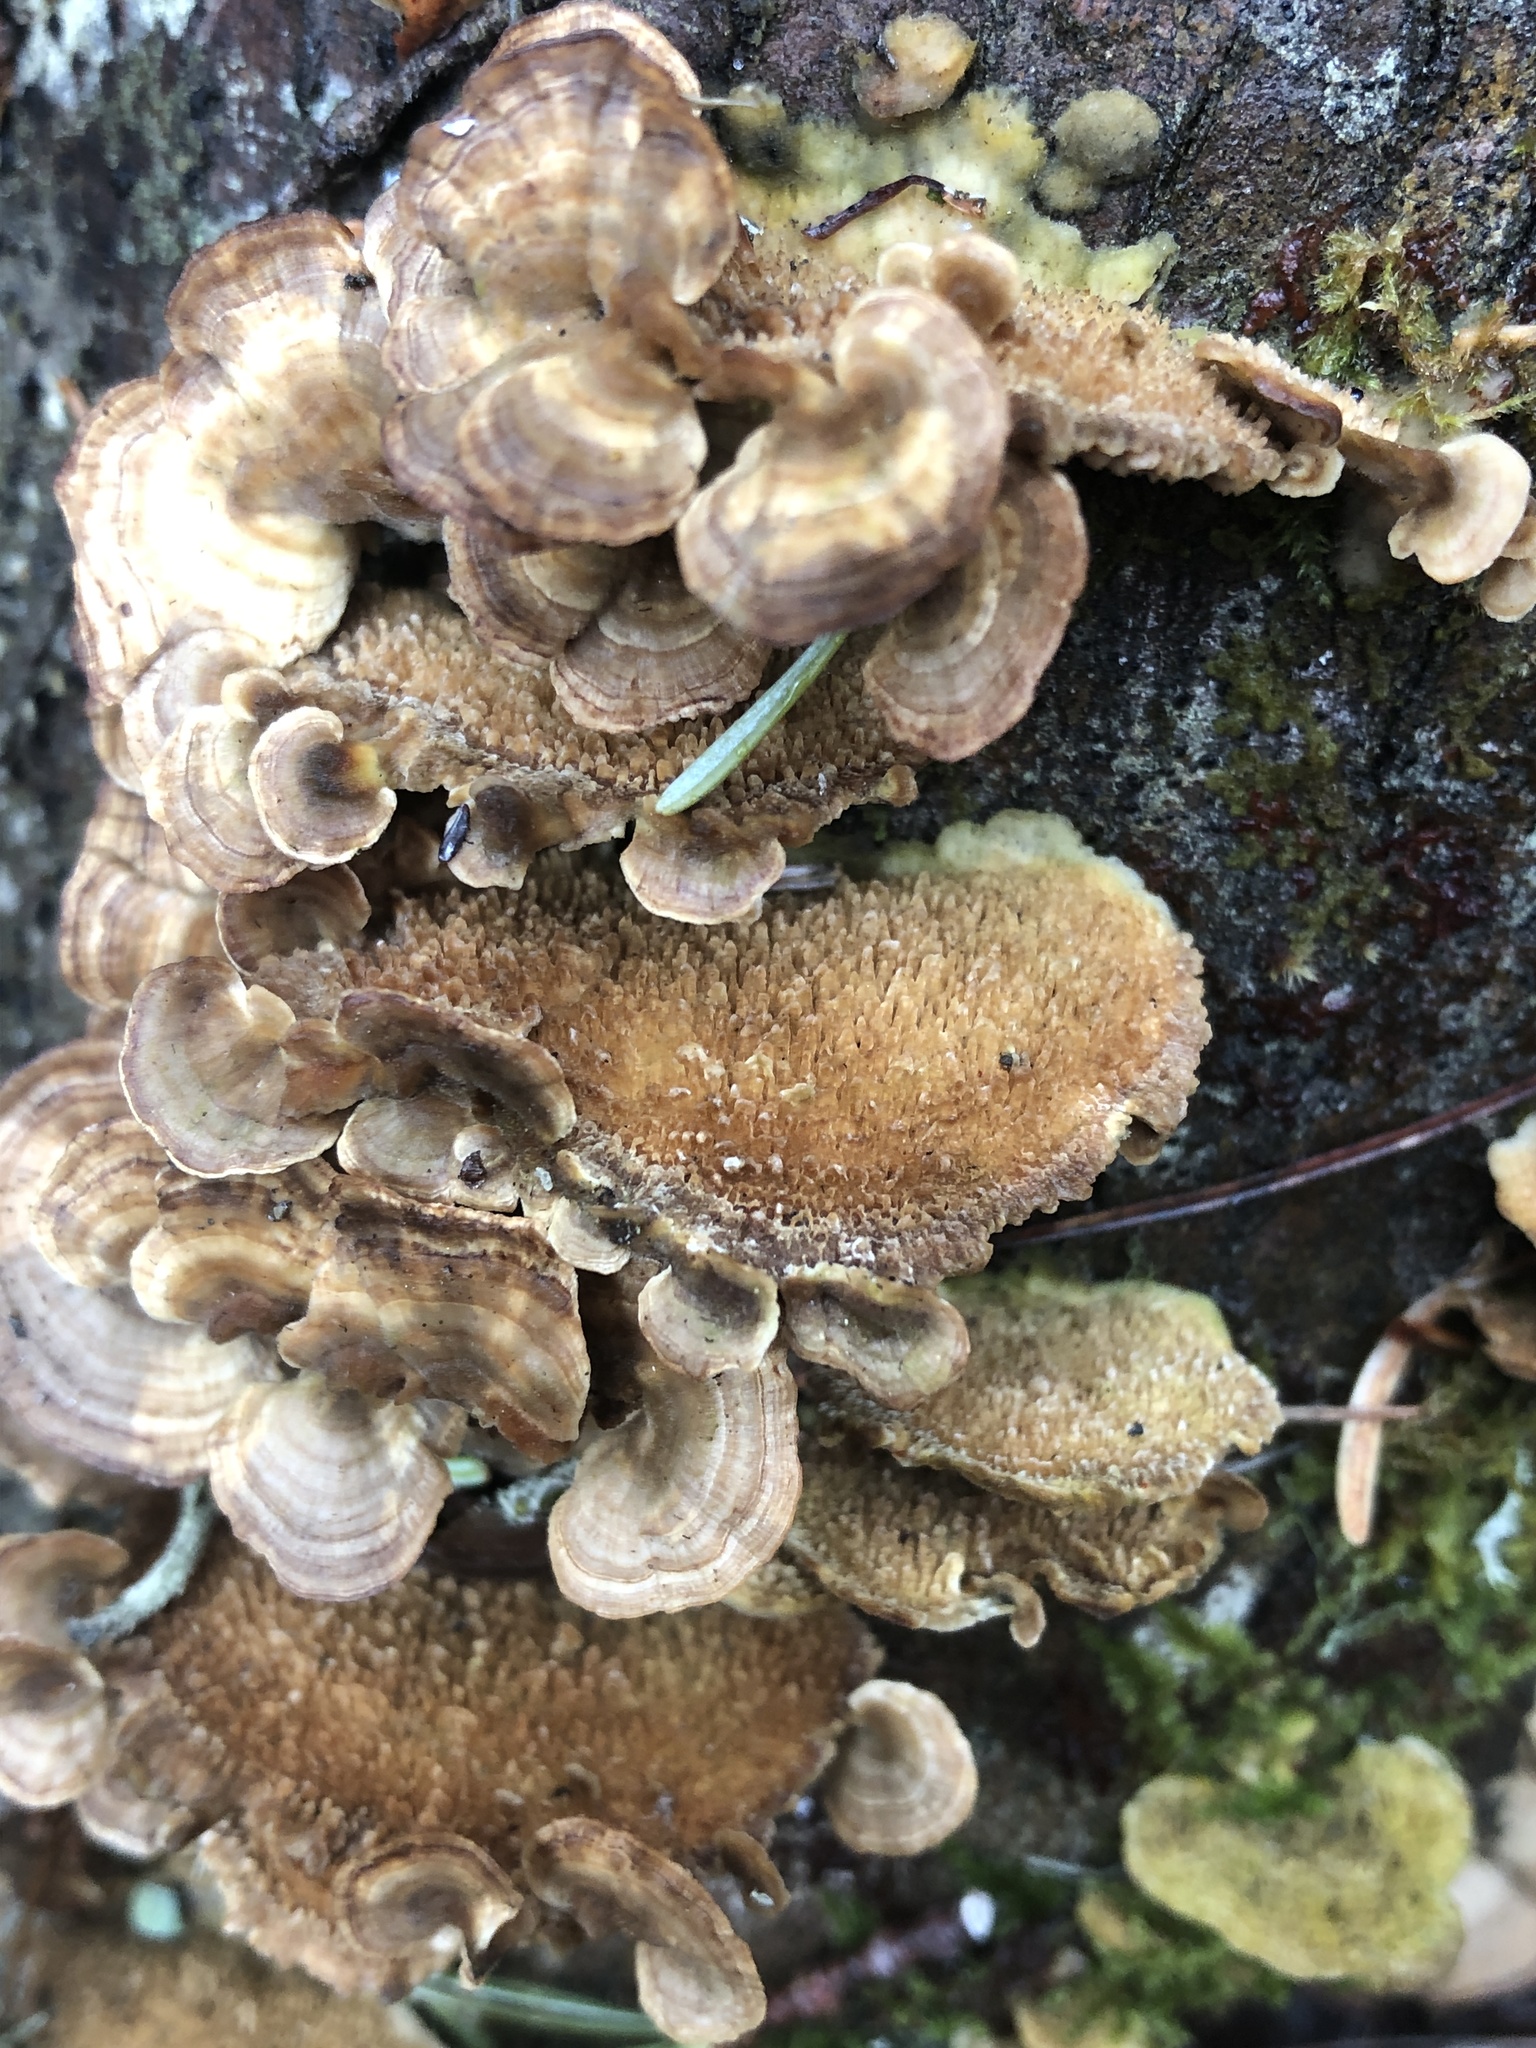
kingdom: Fungi
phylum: Basidiomycota
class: Agaricomycetes
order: Hymenochaetales
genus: Trichaptum
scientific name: Trichaptum biforme
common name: Violet-toothed polypore
